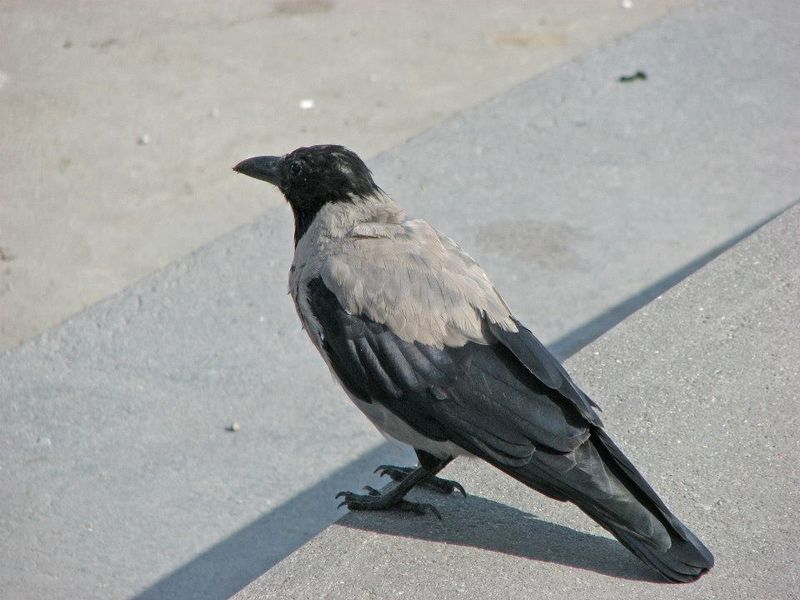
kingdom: Animalia
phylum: Chordata
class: Aves
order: Passeriformes
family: Corvidae
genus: Corvus
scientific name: Corvus cornix
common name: Hooded crow
